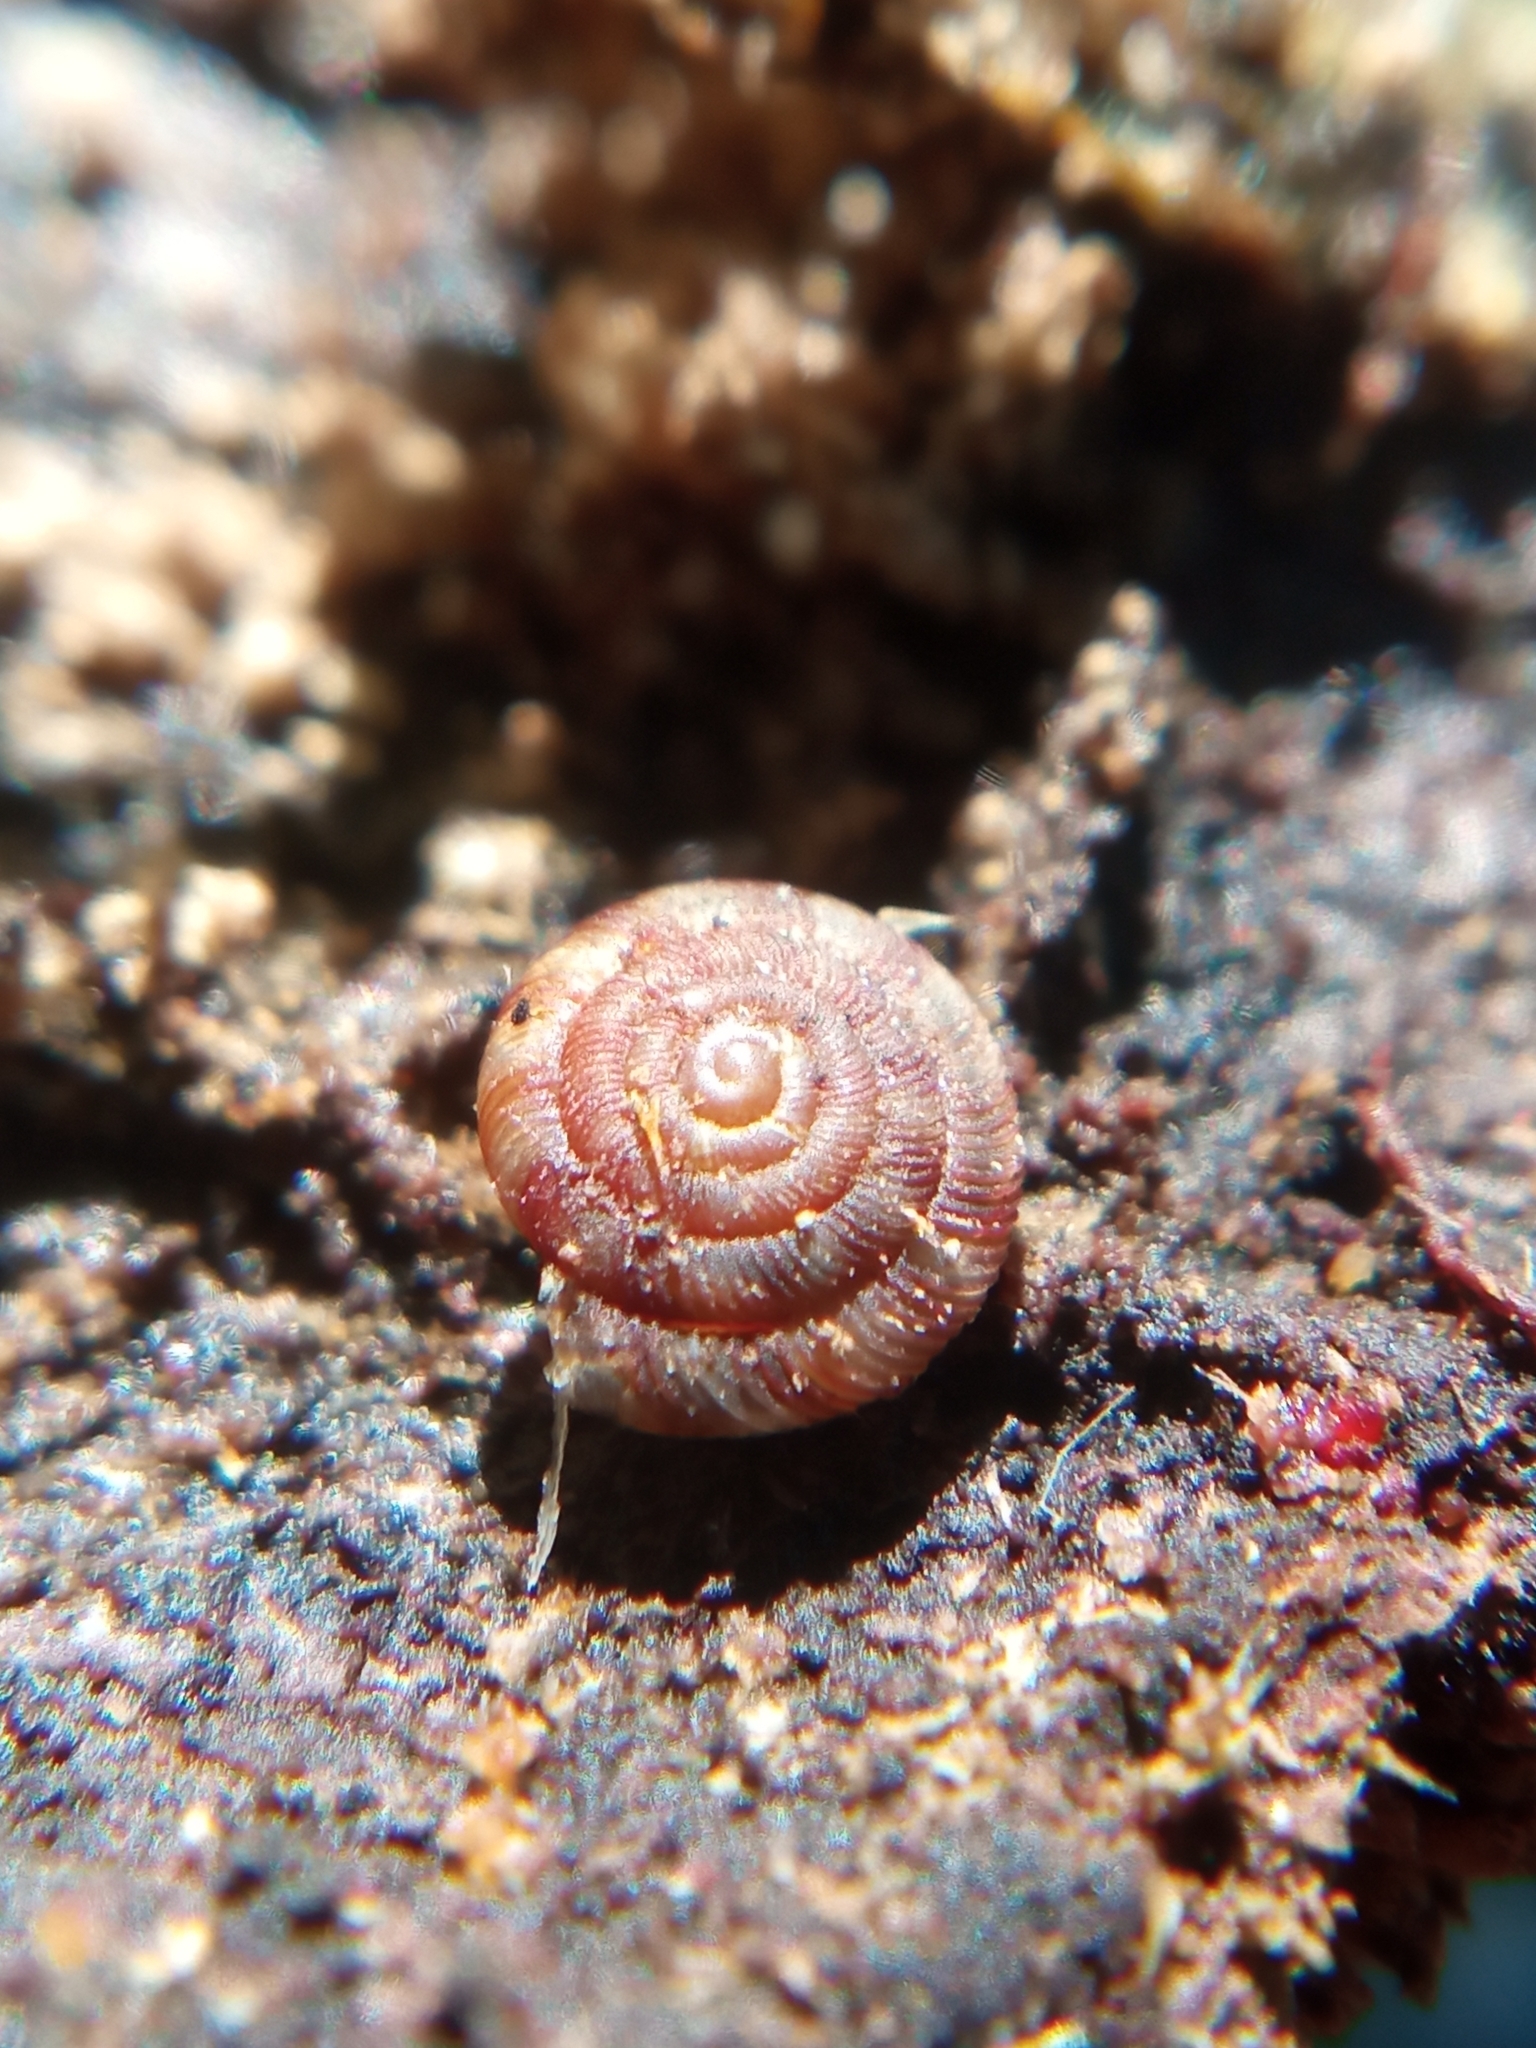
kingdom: Animalia
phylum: Mollusca
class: Gastropoda
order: Stylommatophora
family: Discidae
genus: Discus
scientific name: Discus rotundatus
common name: Rounded snail
